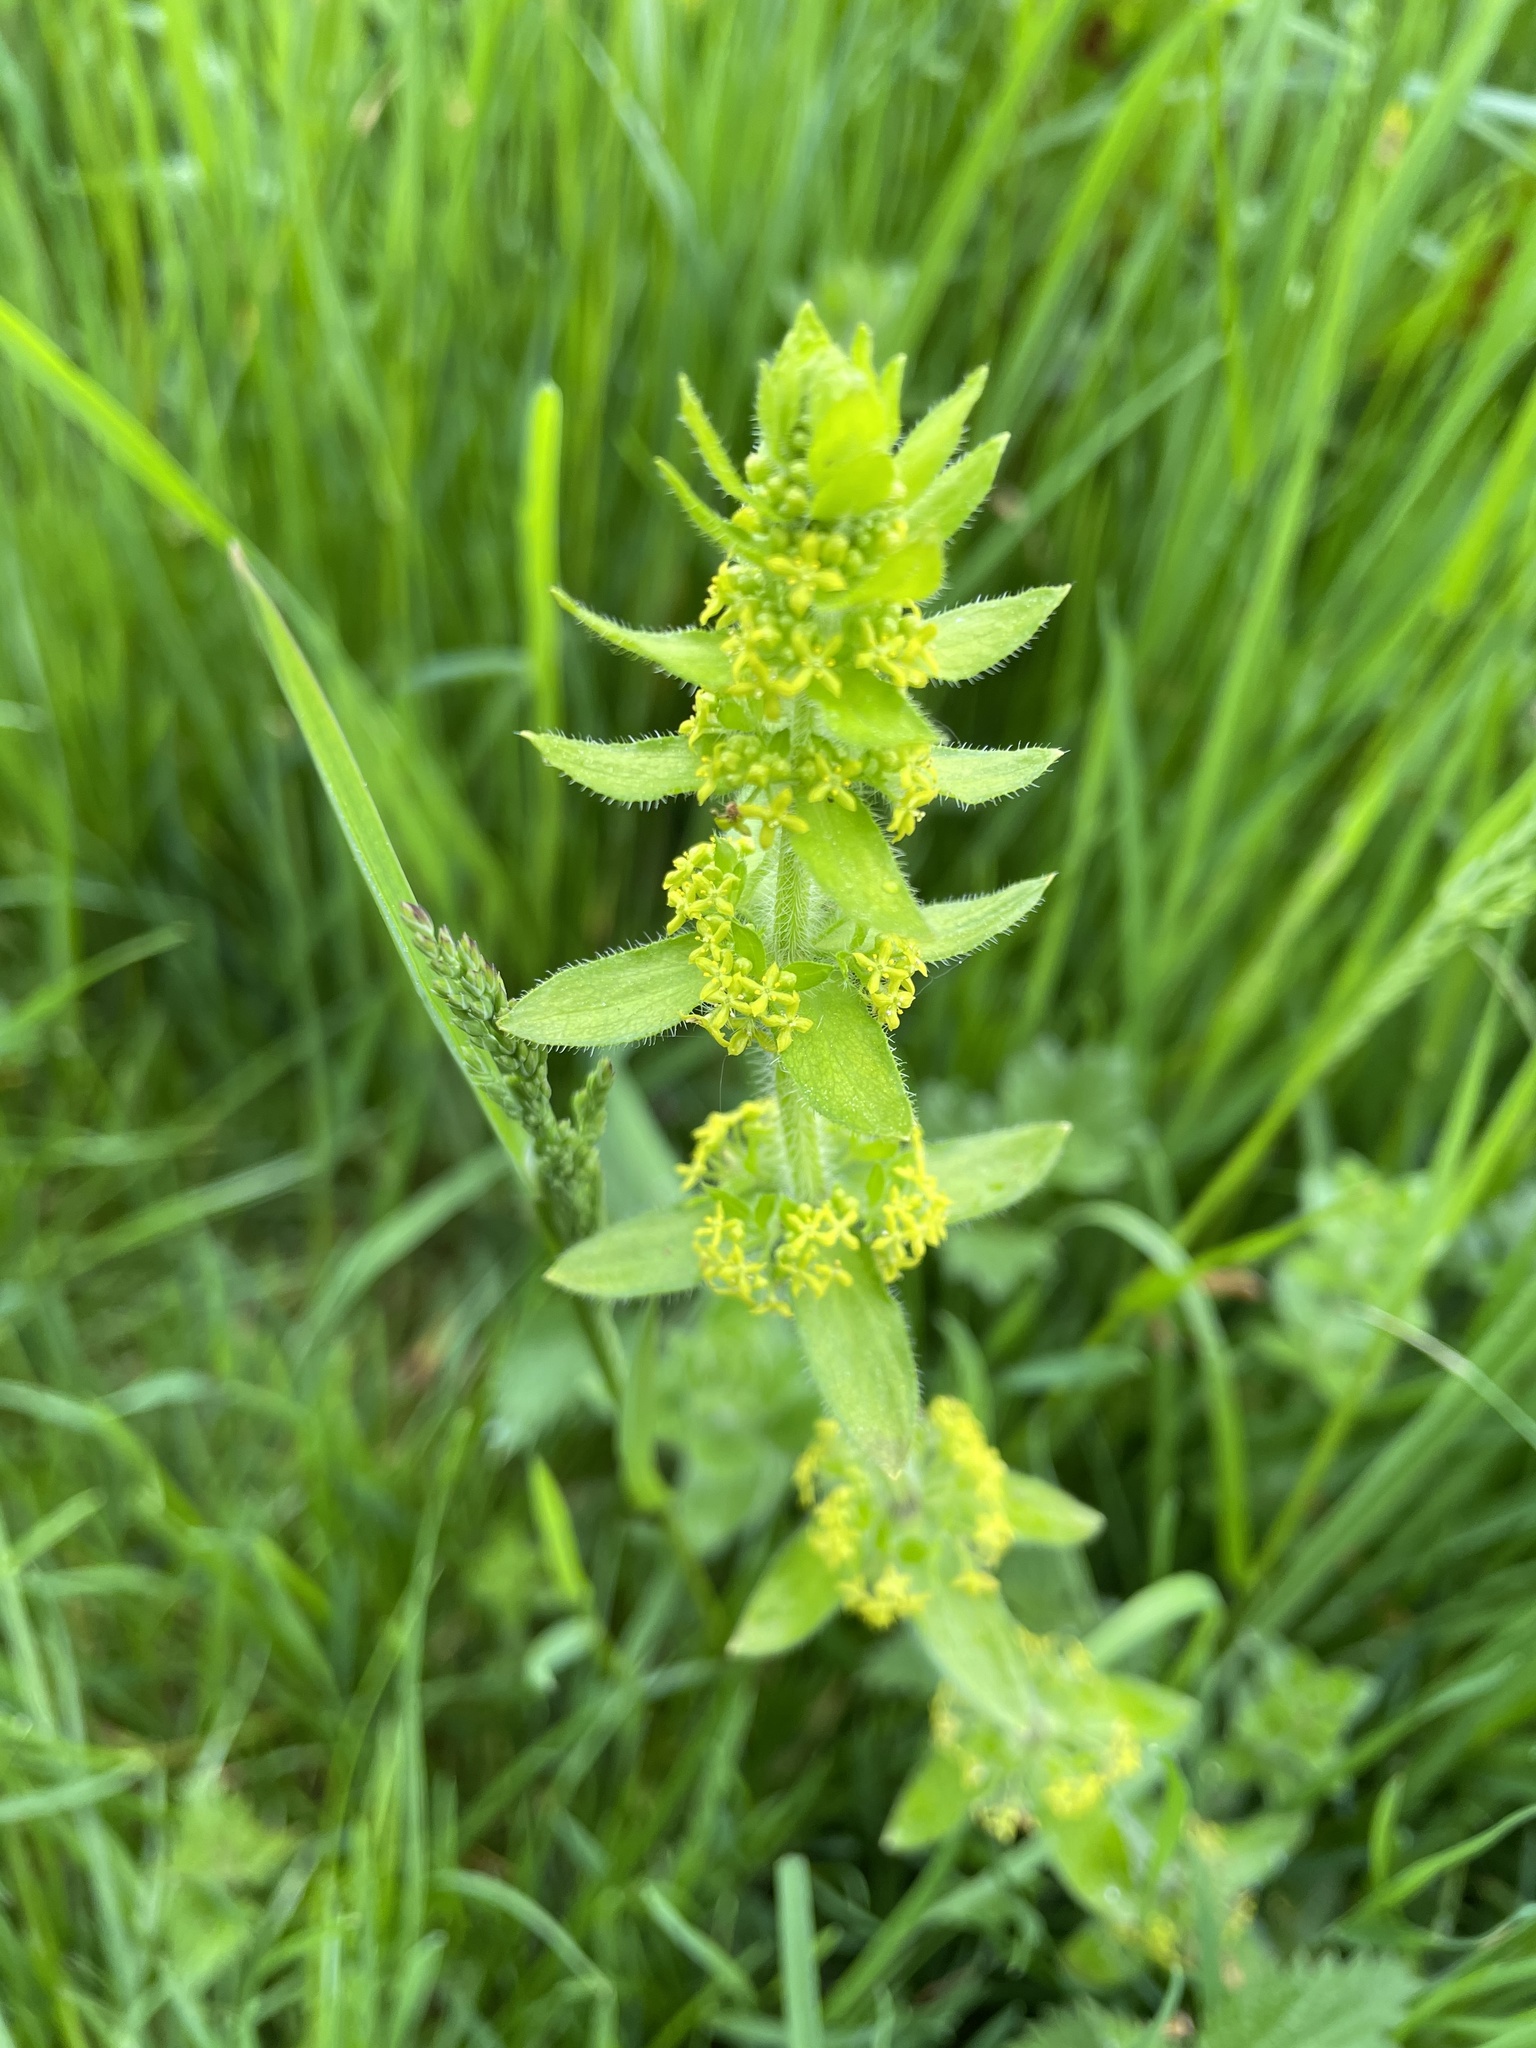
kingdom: Plantae
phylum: Tracheophyta
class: Magnoliopsida
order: Gentianales
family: Rubiaceae
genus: Cruciata
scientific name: Cruciata laevipes
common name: Crosswort
